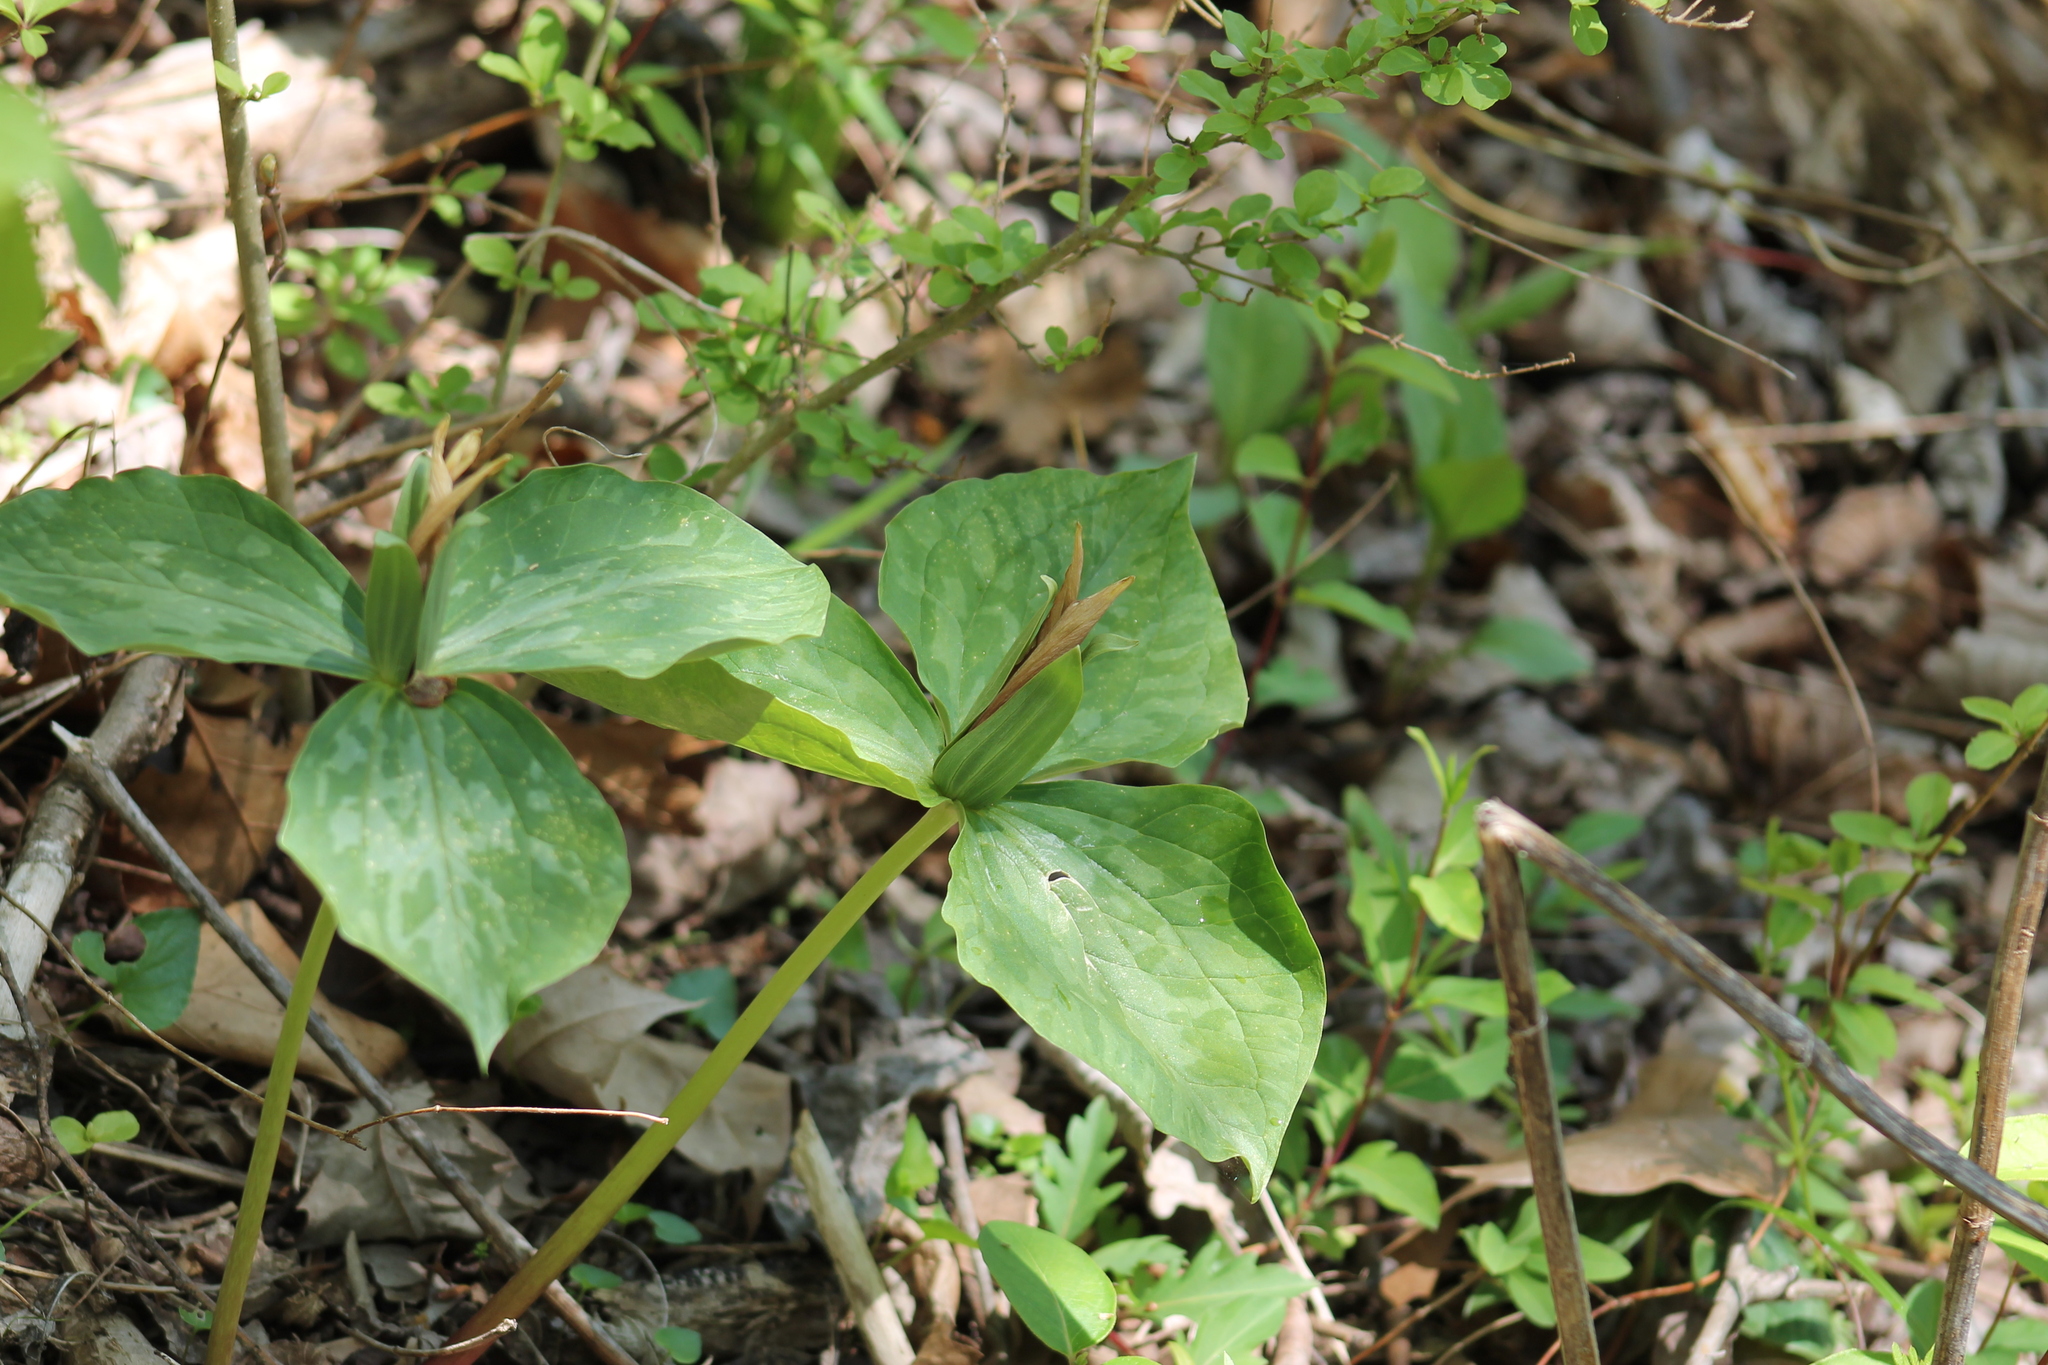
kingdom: Plantae
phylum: Tracheophyta
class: Liliopsida
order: Liliales
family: Melanthiaceae
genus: Trillium
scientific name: Trillium cuneatum
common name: Cuneate trillium
